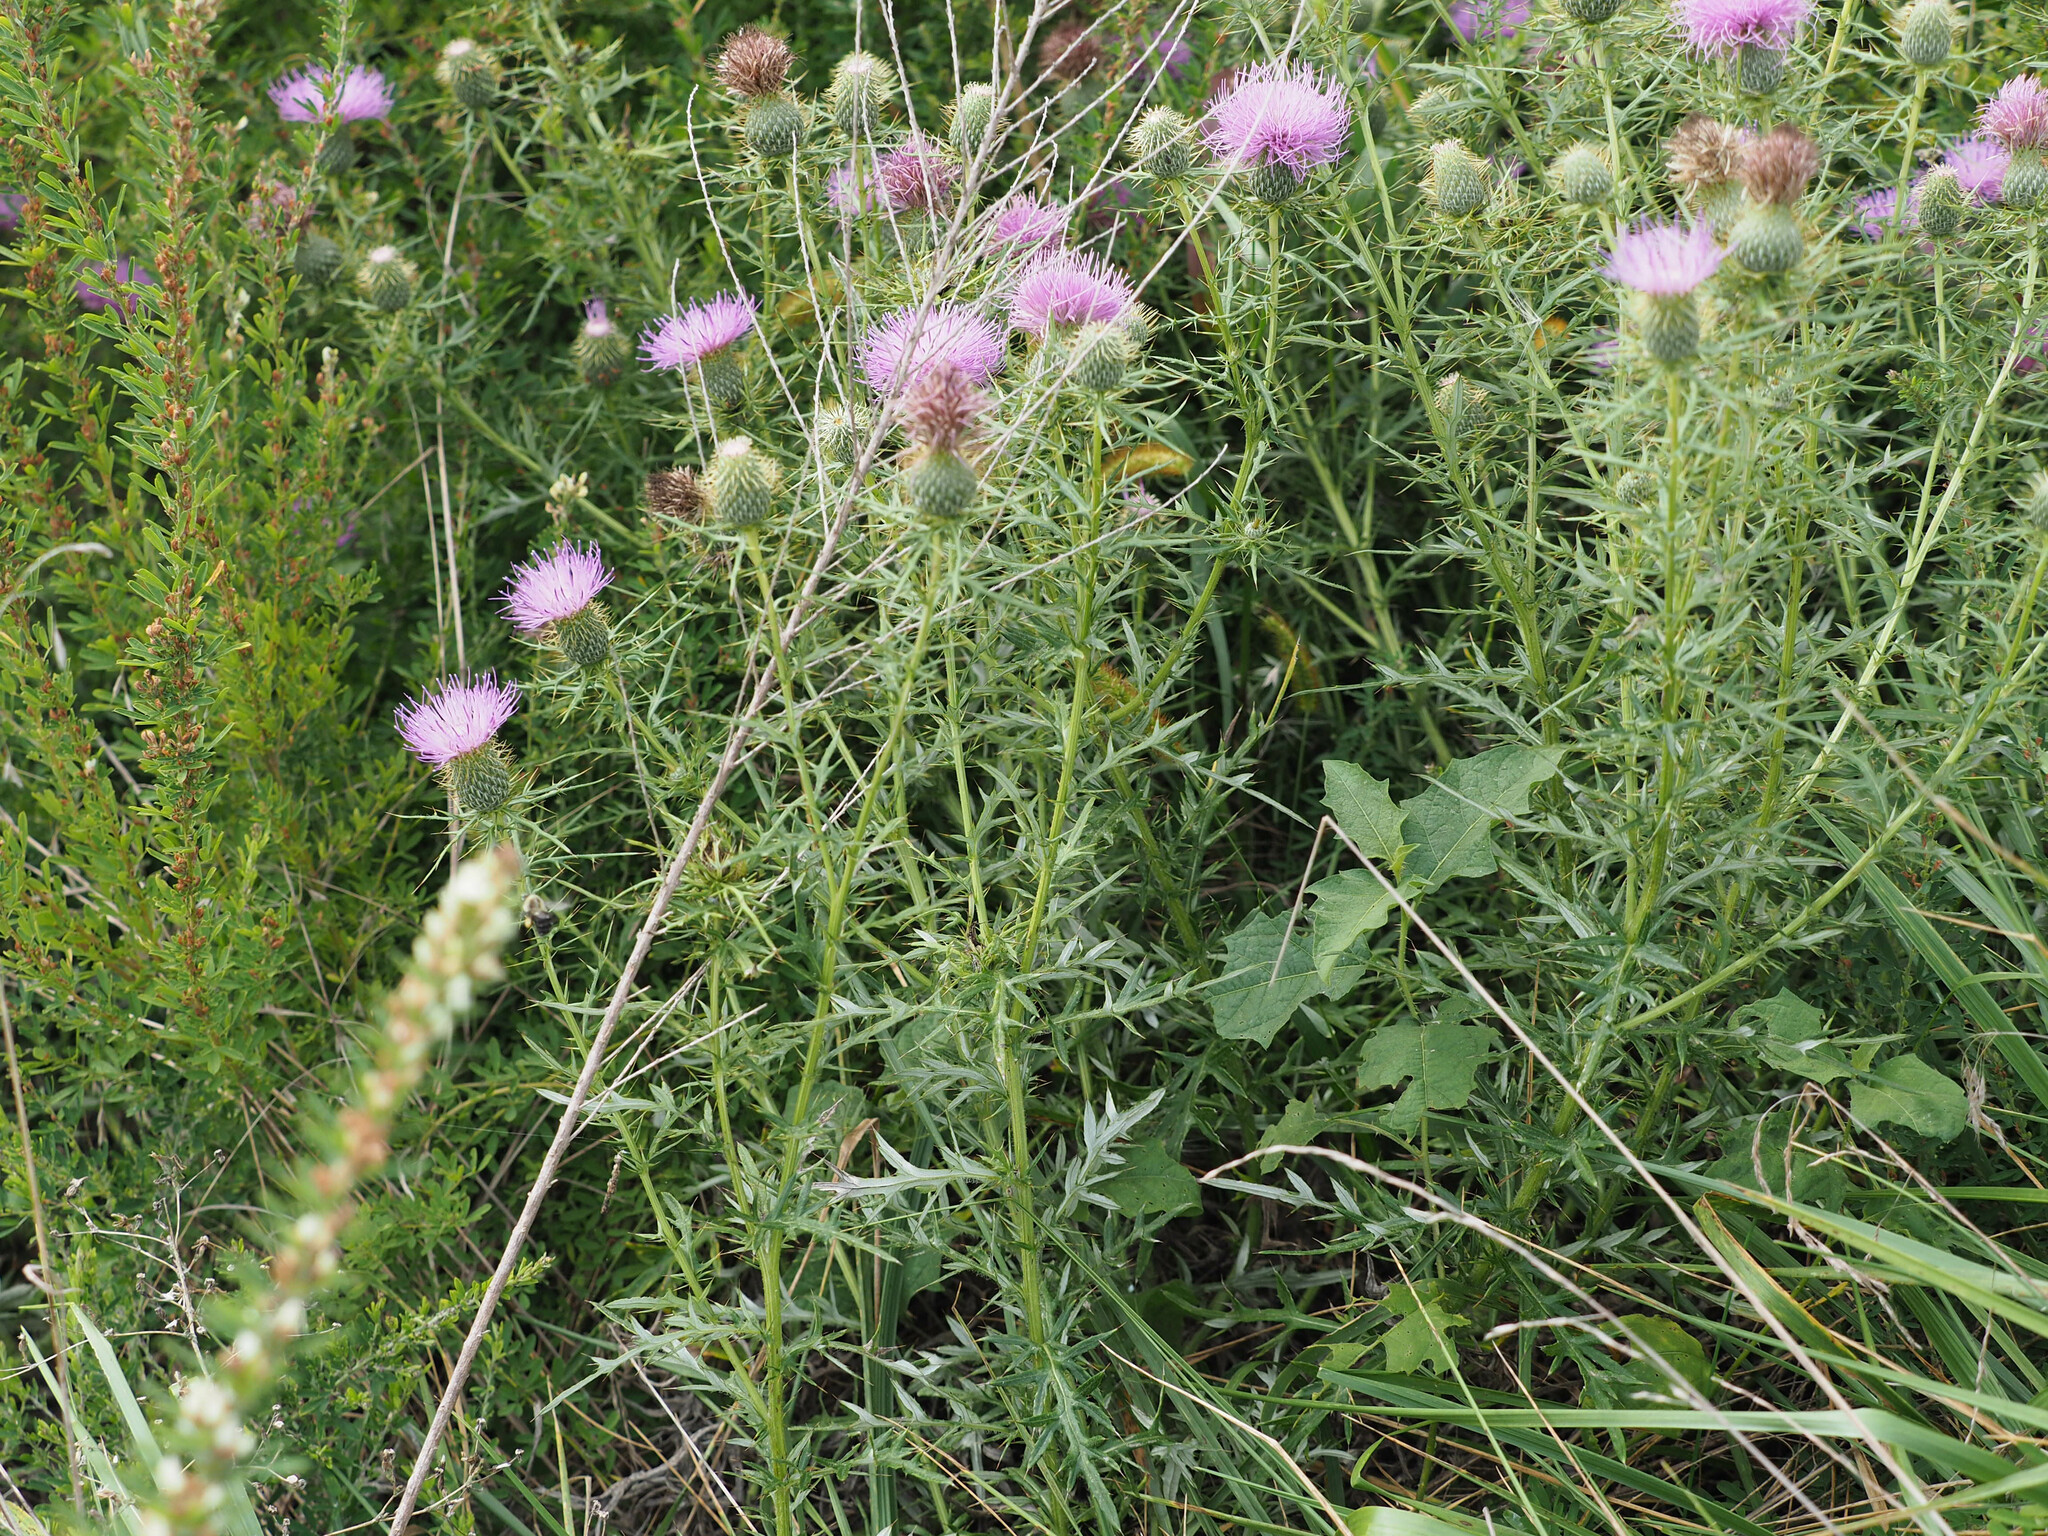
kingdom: Plantae
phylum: Tracheophyta
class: Magnoliopsida
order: Asterales
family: Asteraceae
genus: Cirsium
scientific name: Cirsium discolor
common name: Field thistle
